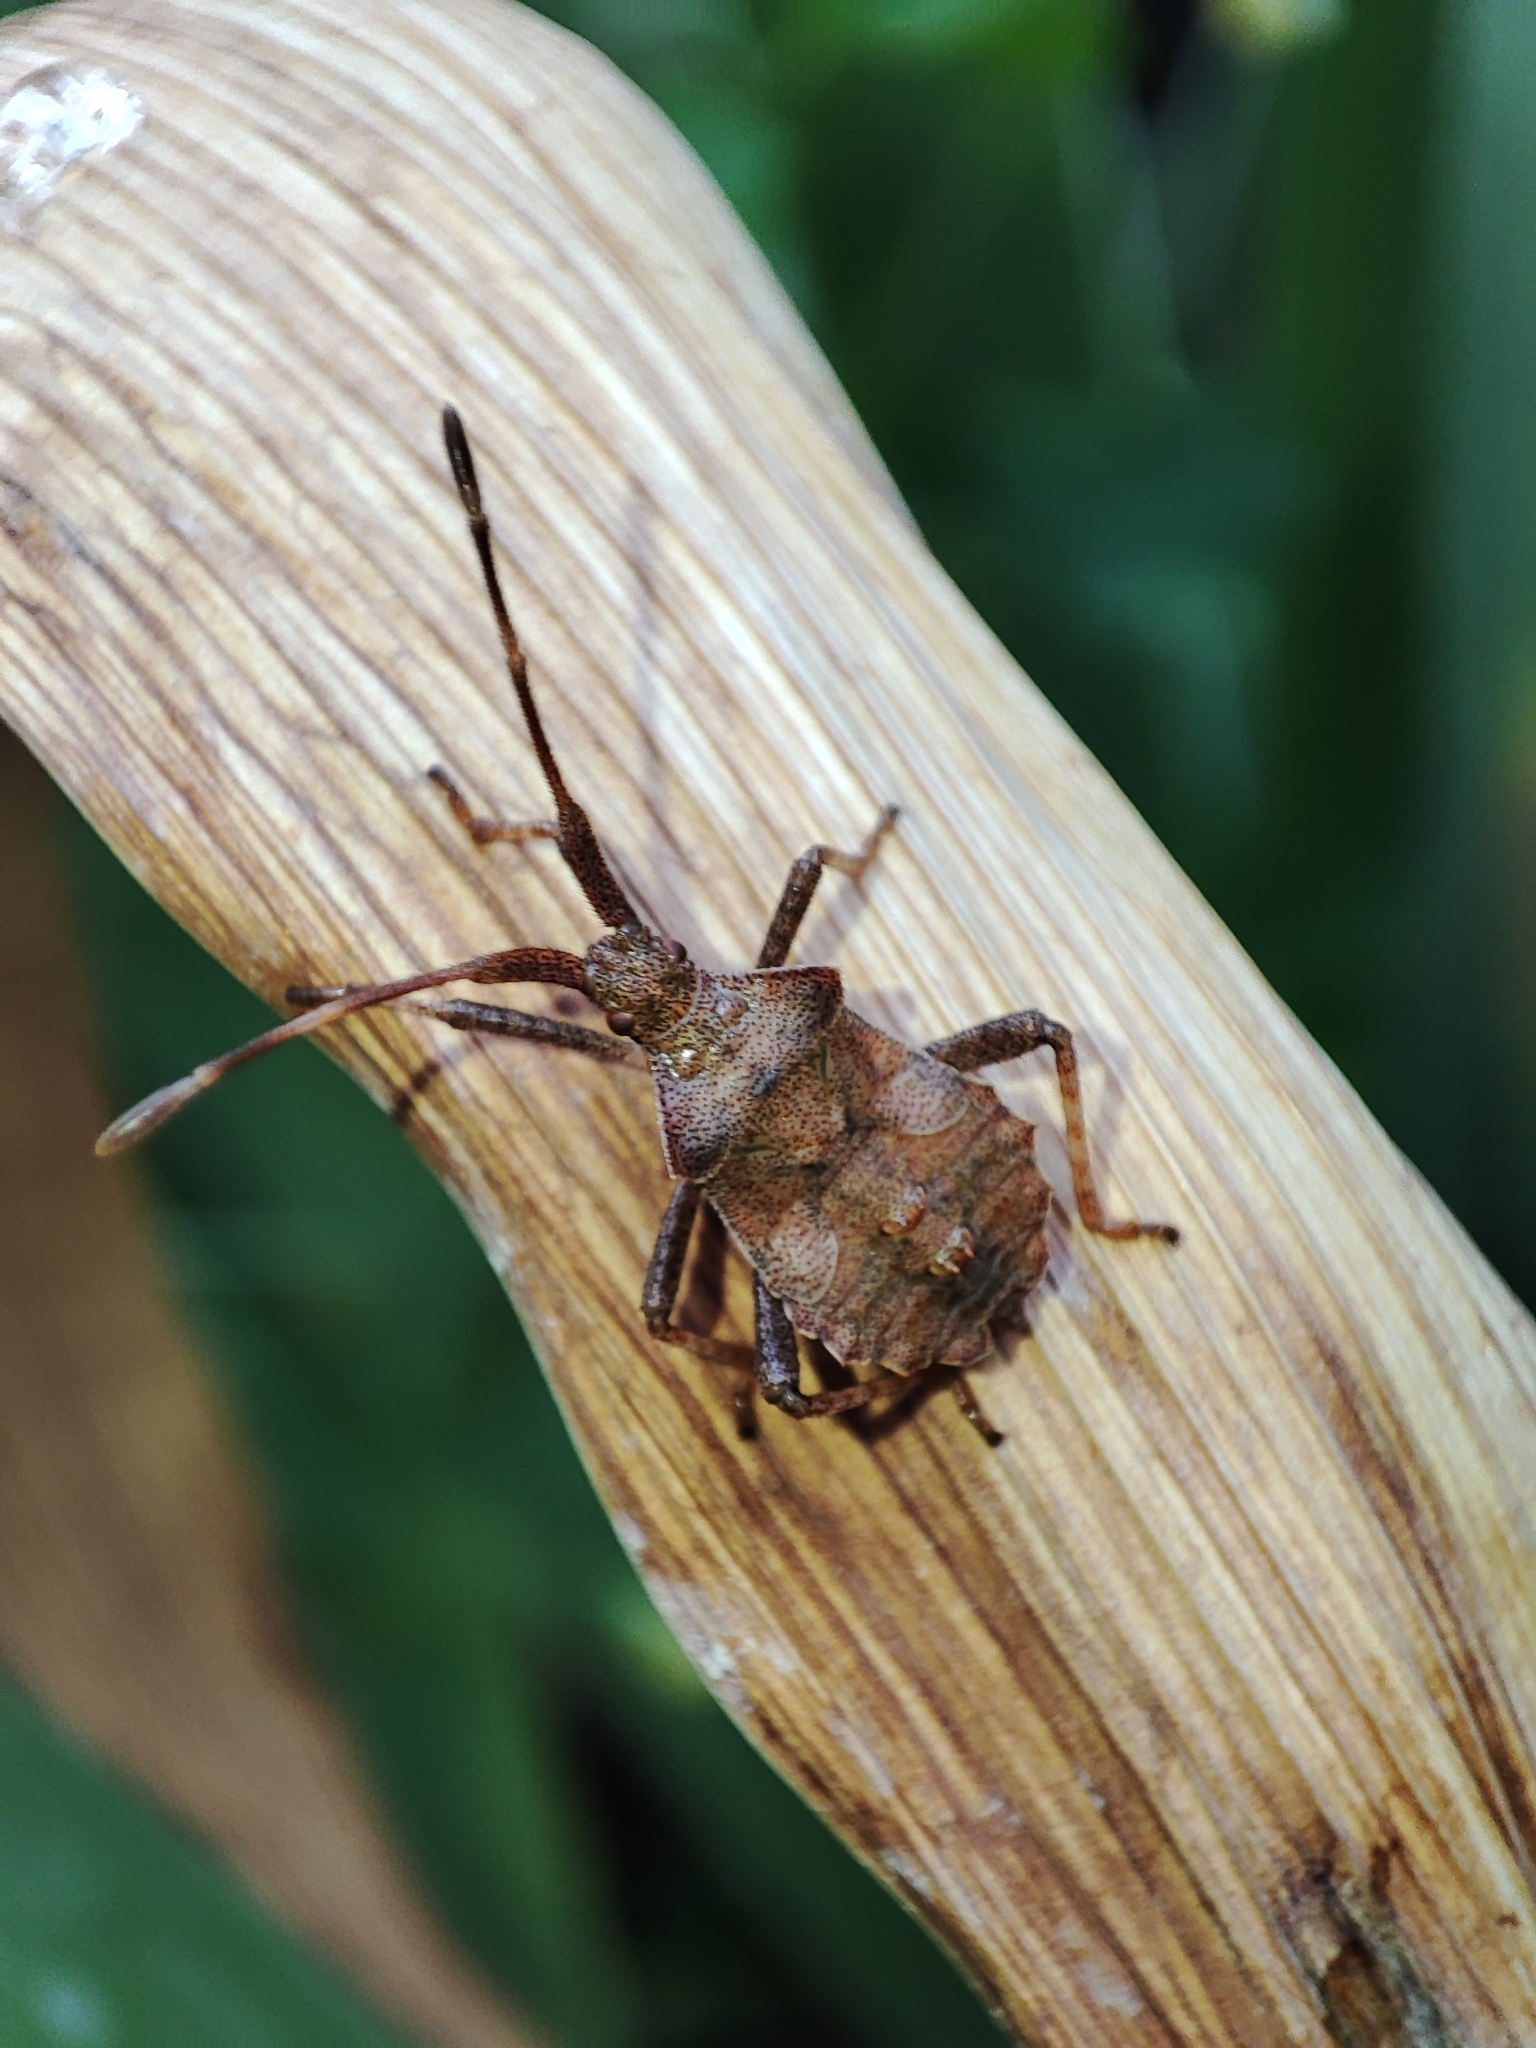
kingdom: Animalia
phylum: Arthropoda
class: Insecta
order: Hemiptera
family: Coreidae
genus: Coreus
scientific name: Coreus marginatus
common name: Dock bug
